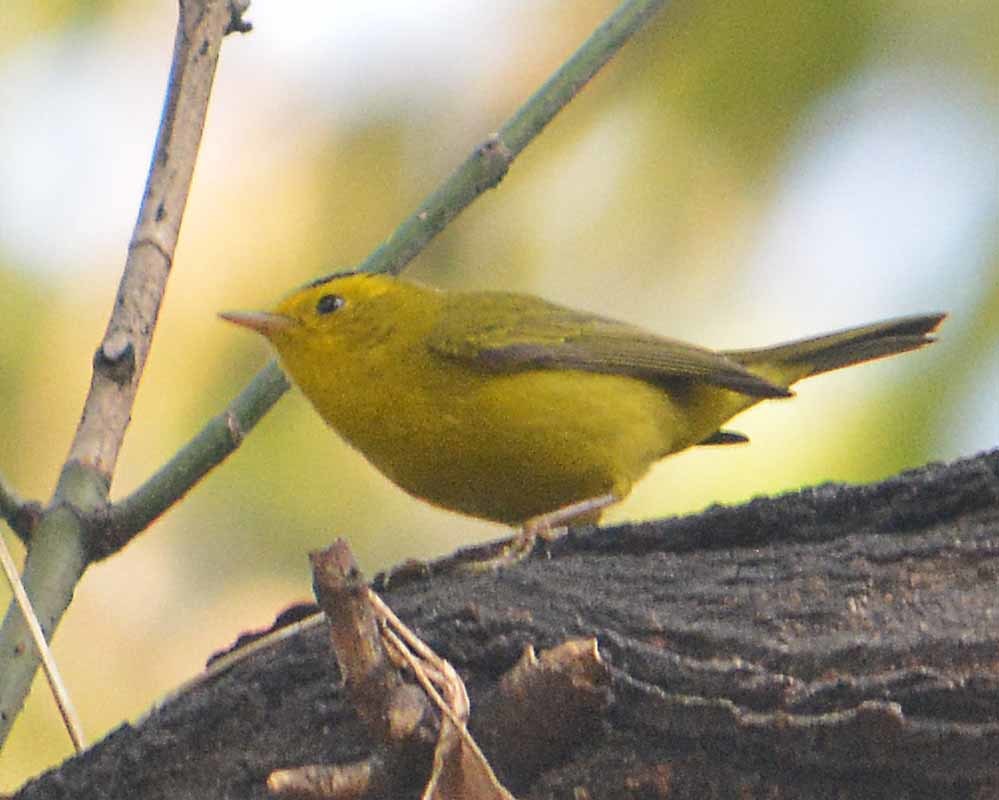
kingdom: Animalia
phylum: Chordata
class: Aves
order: Passeriformes
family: Parulidae
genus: Cardellina
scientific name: Cardellina pusilla
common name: Wilson's warbler
